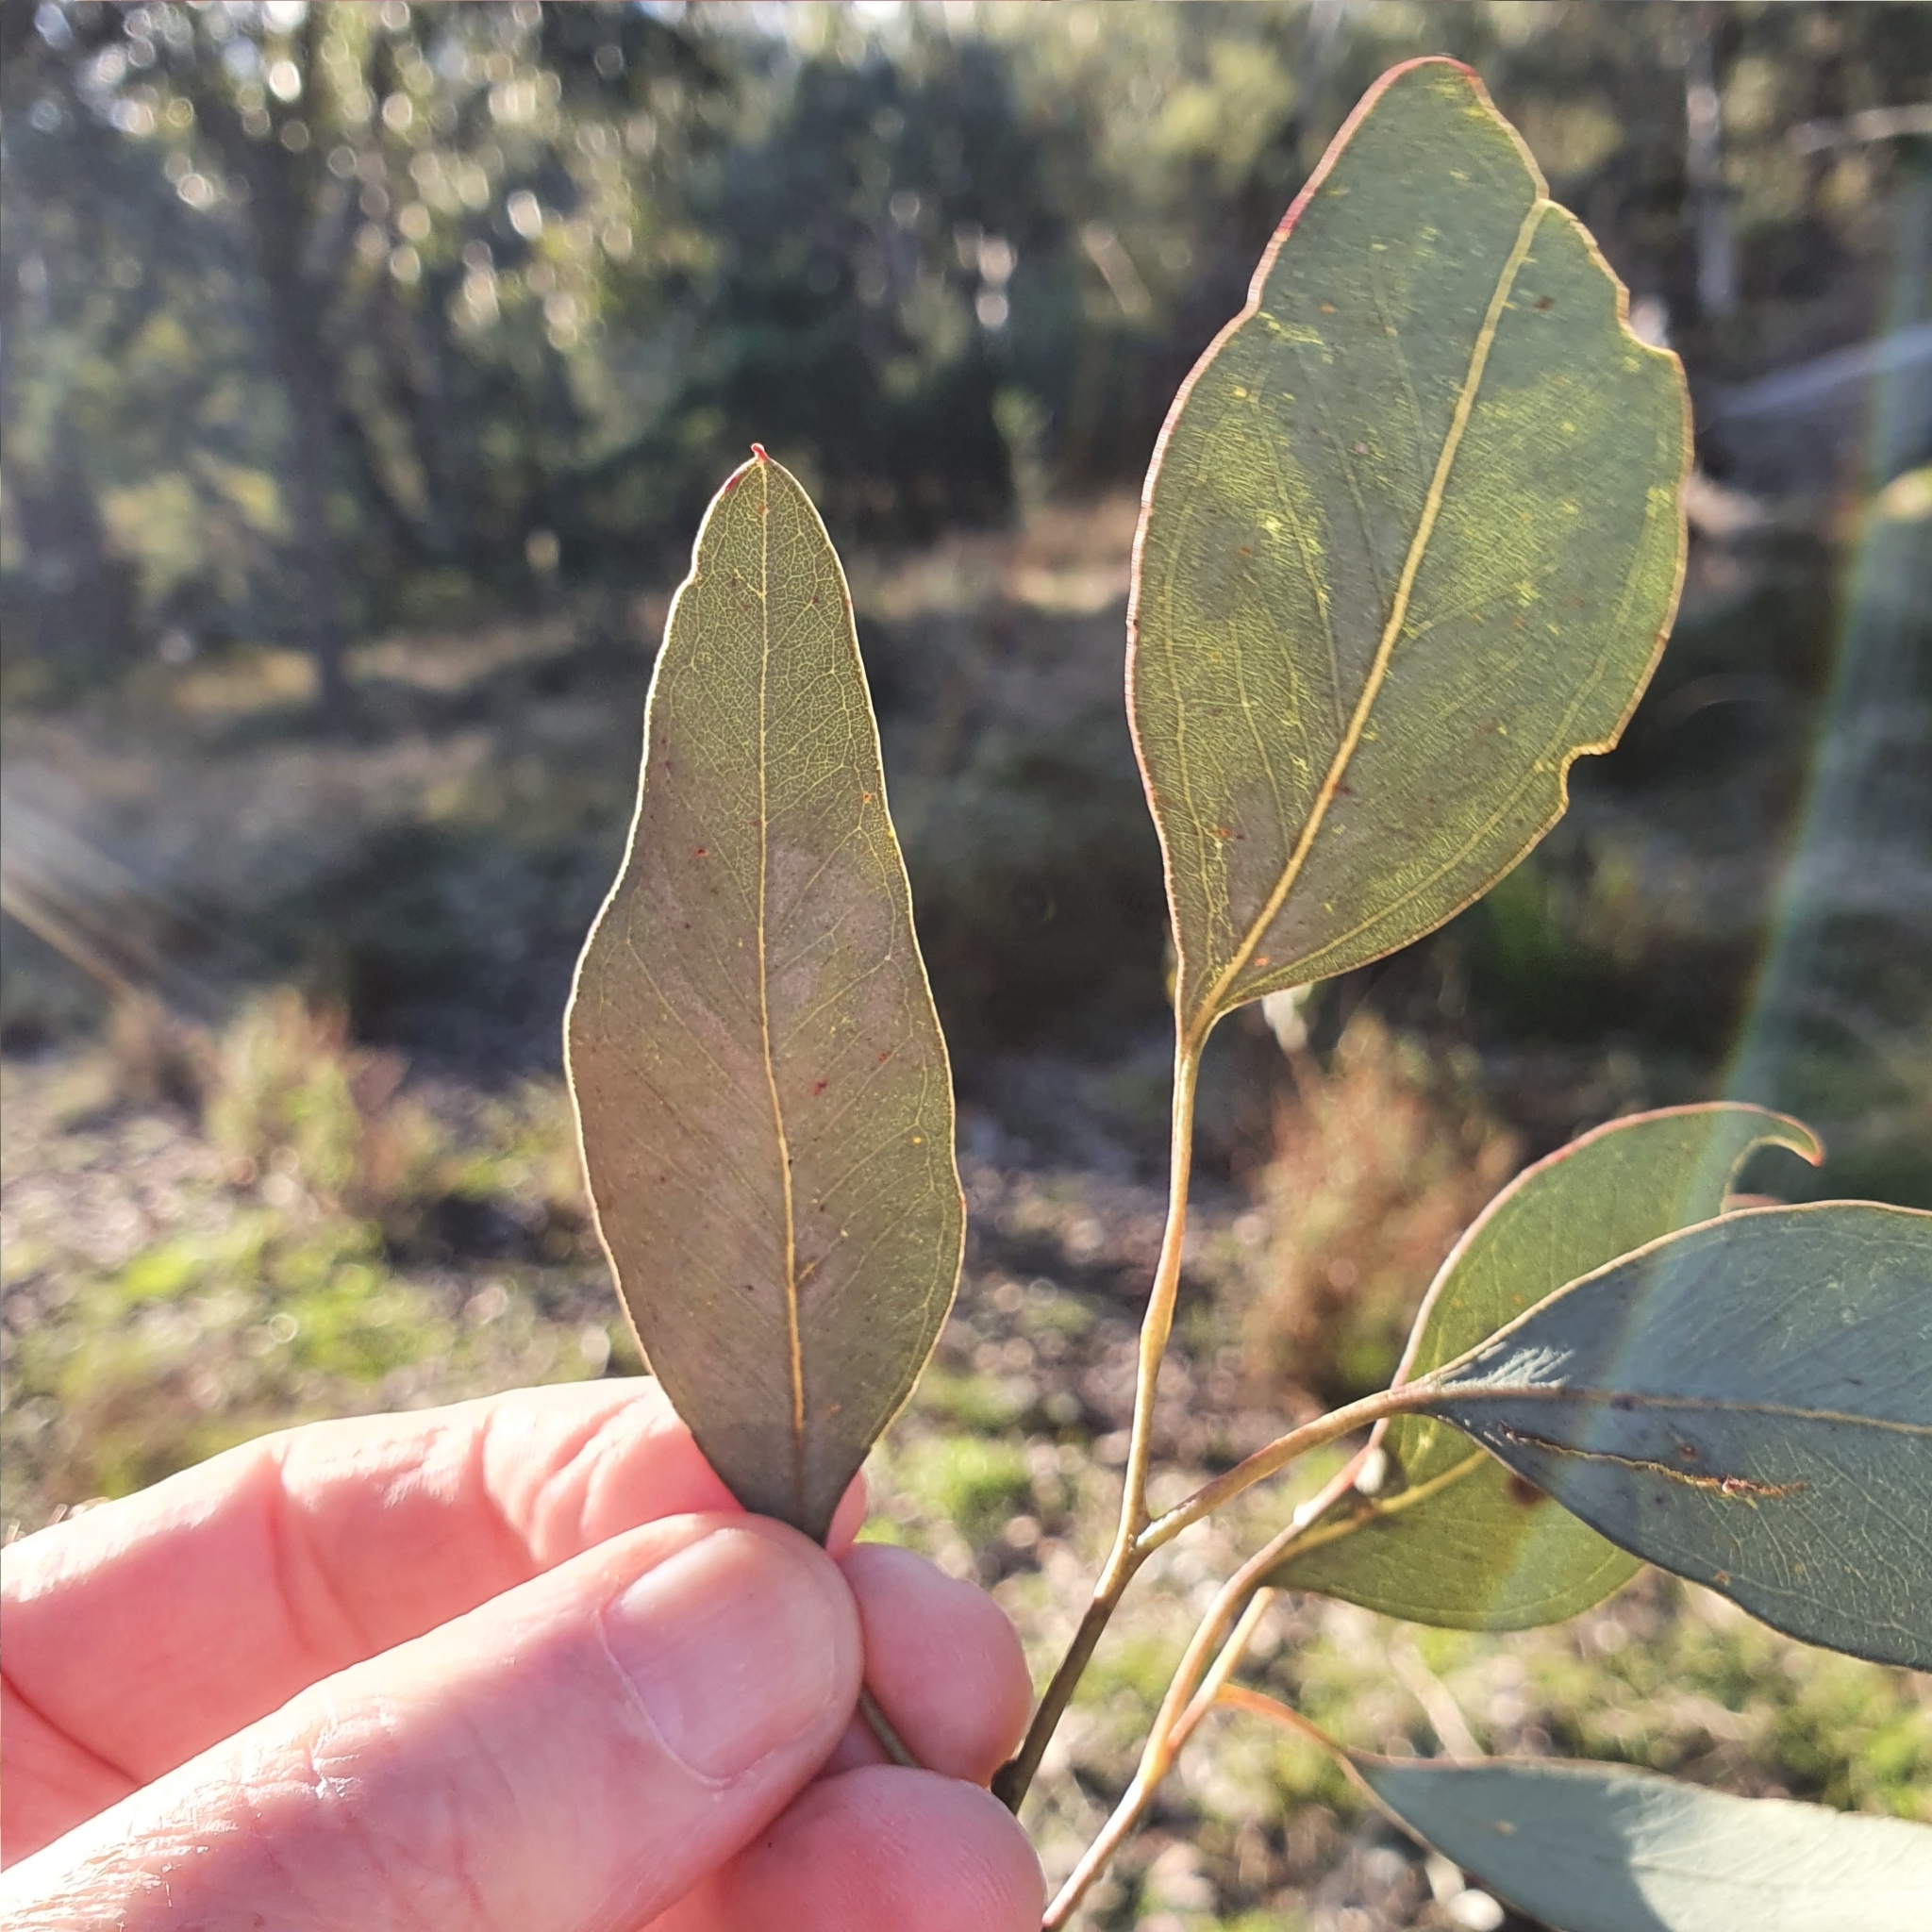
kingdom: Plantae
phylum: Tracheophyta
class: Magnoliopsida
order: Myrtales
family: Myrtaceae
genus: Eucalyptus
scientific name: Eucalyptus polyanthemos
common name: Red-box
